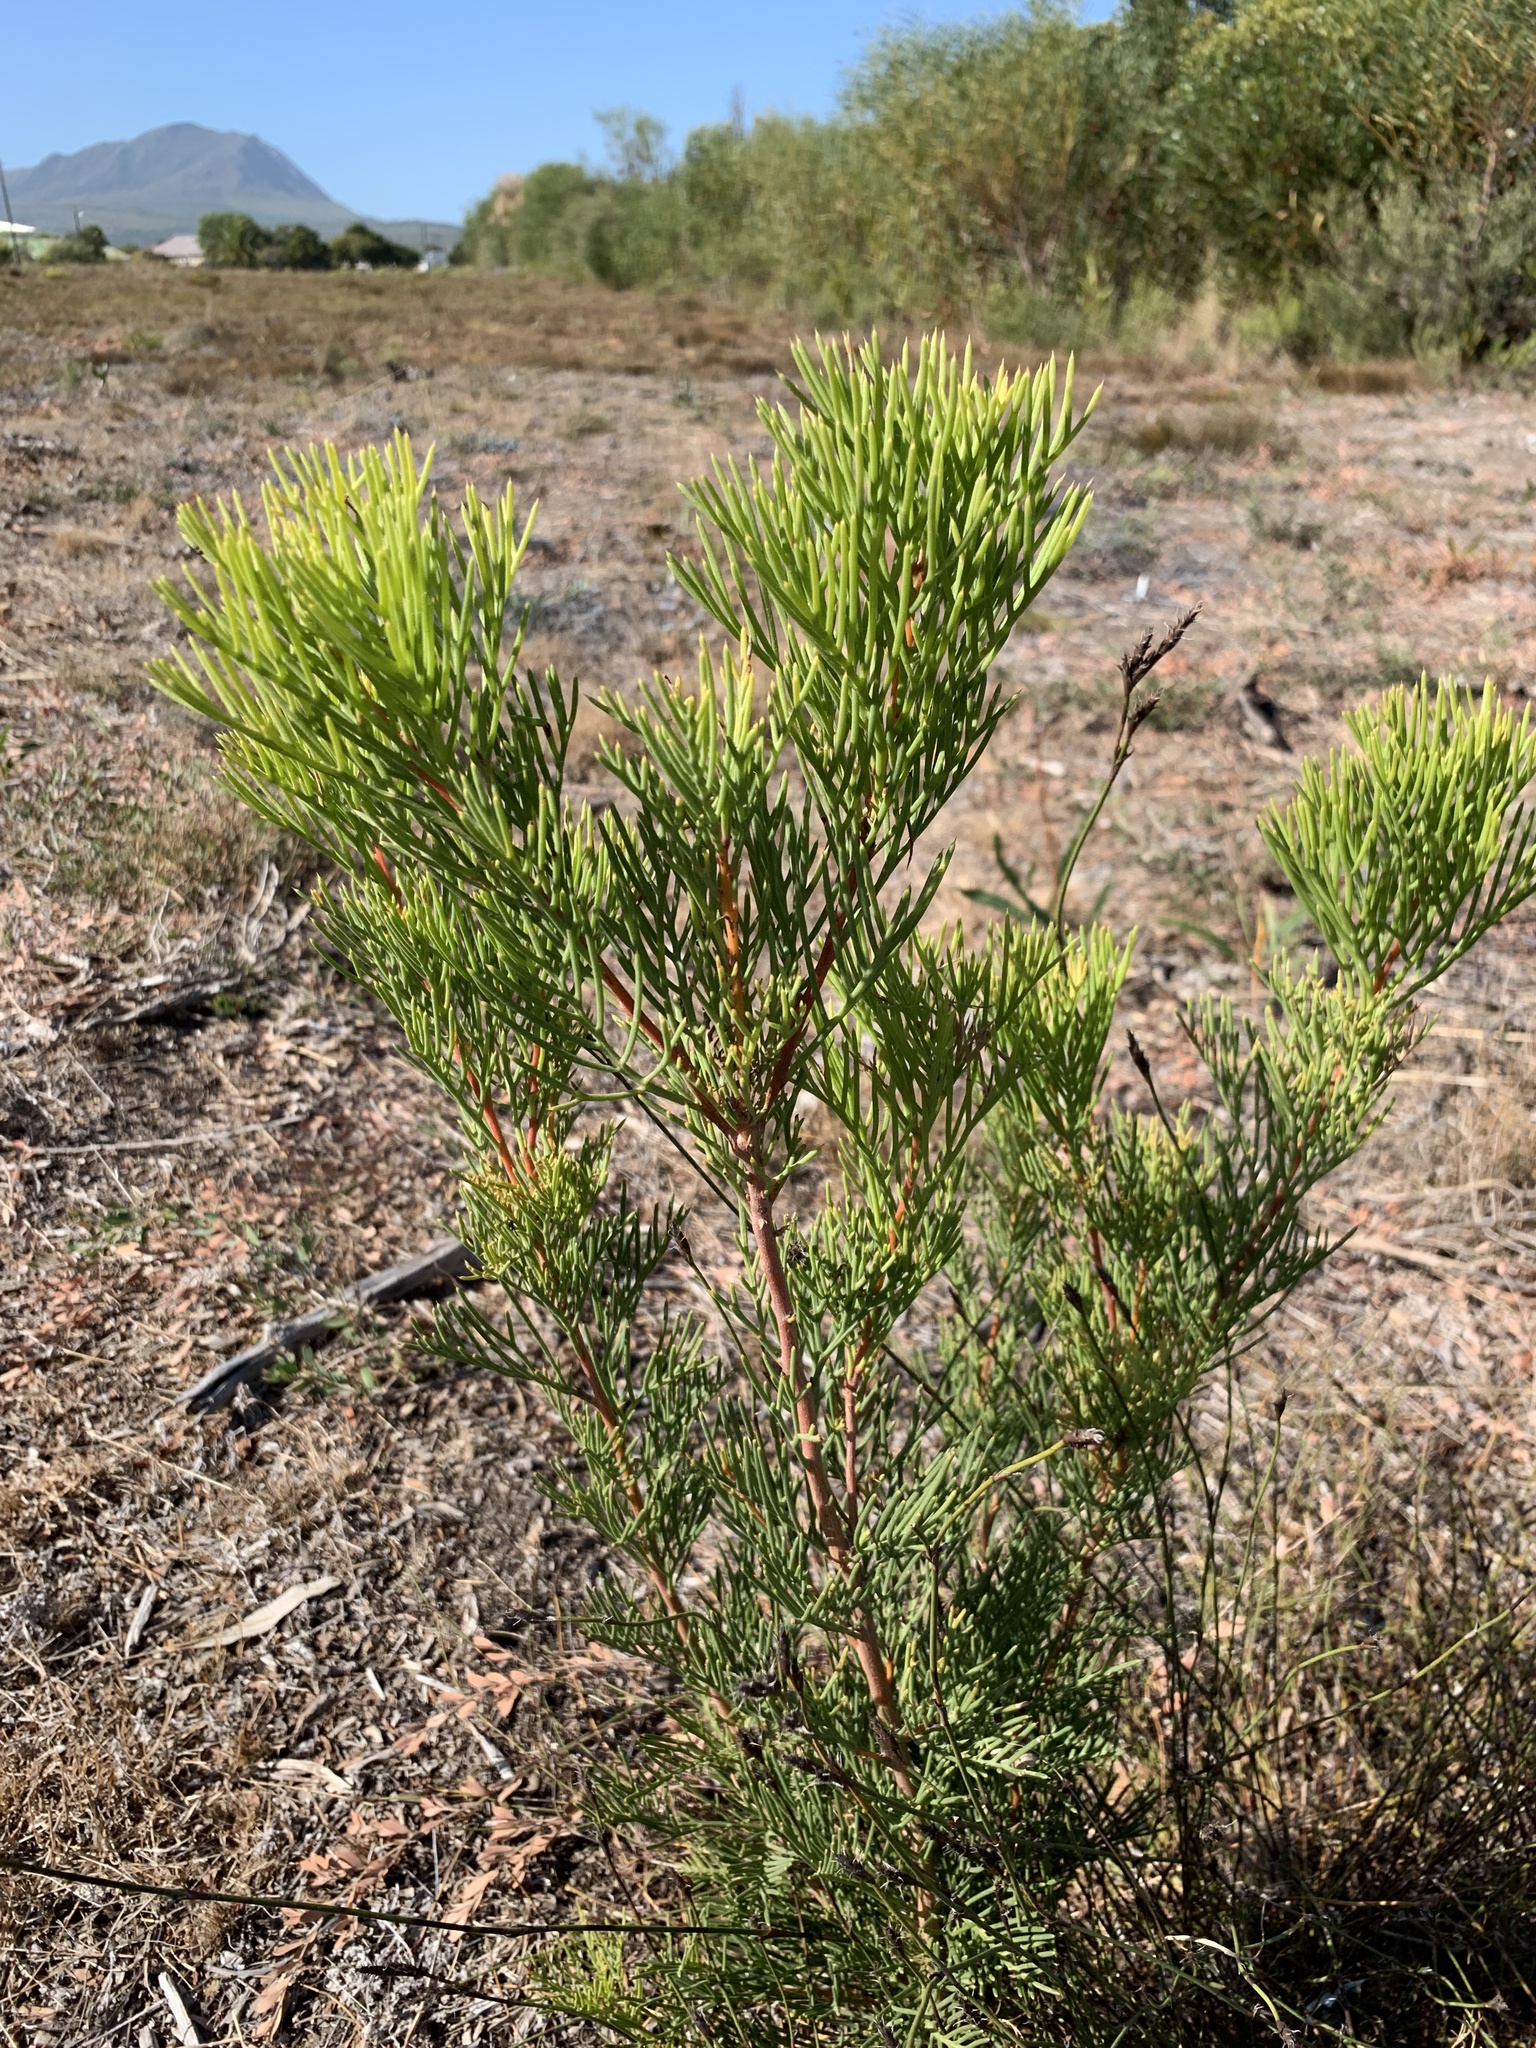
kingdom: Plantae
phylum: Tracheophyta
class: Magnoliopsida
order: Proteales
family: Proteaceae
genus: Hakea
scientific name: Hakea drupacea
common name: Sweet hakea
